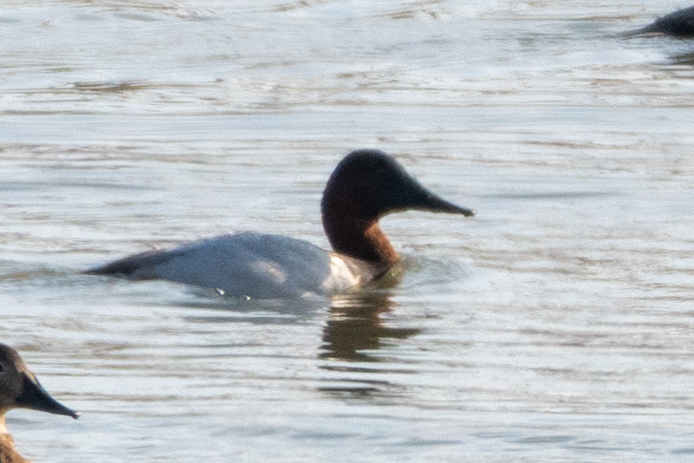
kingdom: Animalia
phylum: Chordata
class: Aves
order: Anseriformes
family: Anatidae
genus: Aythya
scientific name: Aythya valisineria
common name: Canvasback
